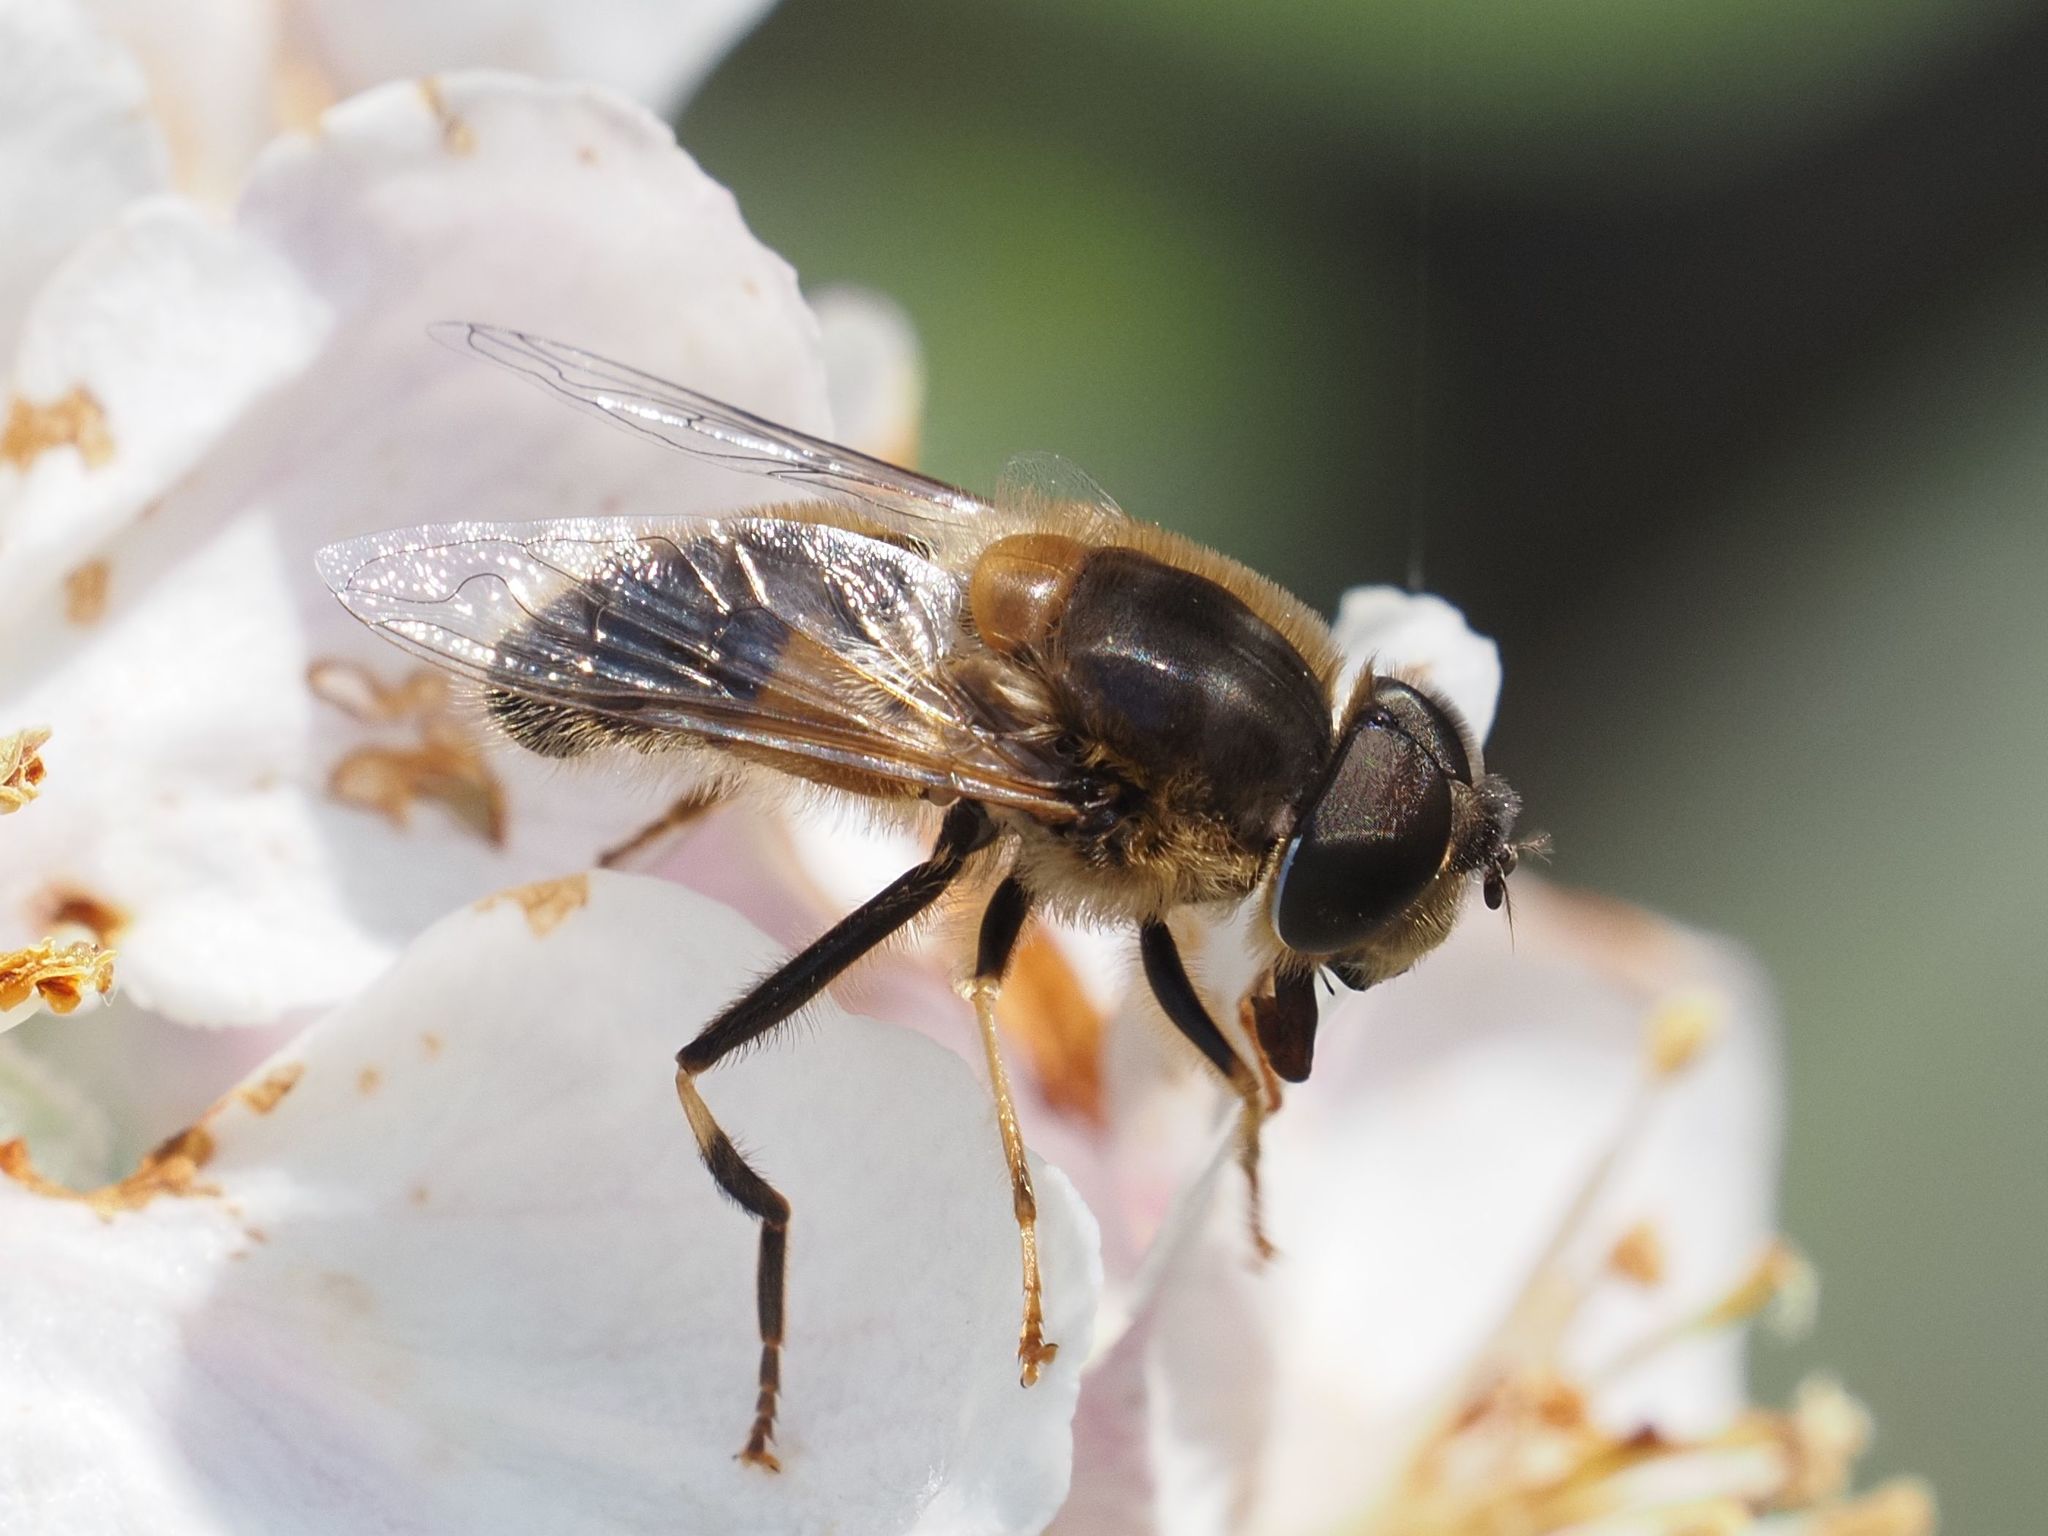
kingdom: Animalia
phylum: Arthropoda
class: Insecta
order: Diptera
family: Syrphidae
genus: Eristalis
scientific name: Eristalis pertinax
